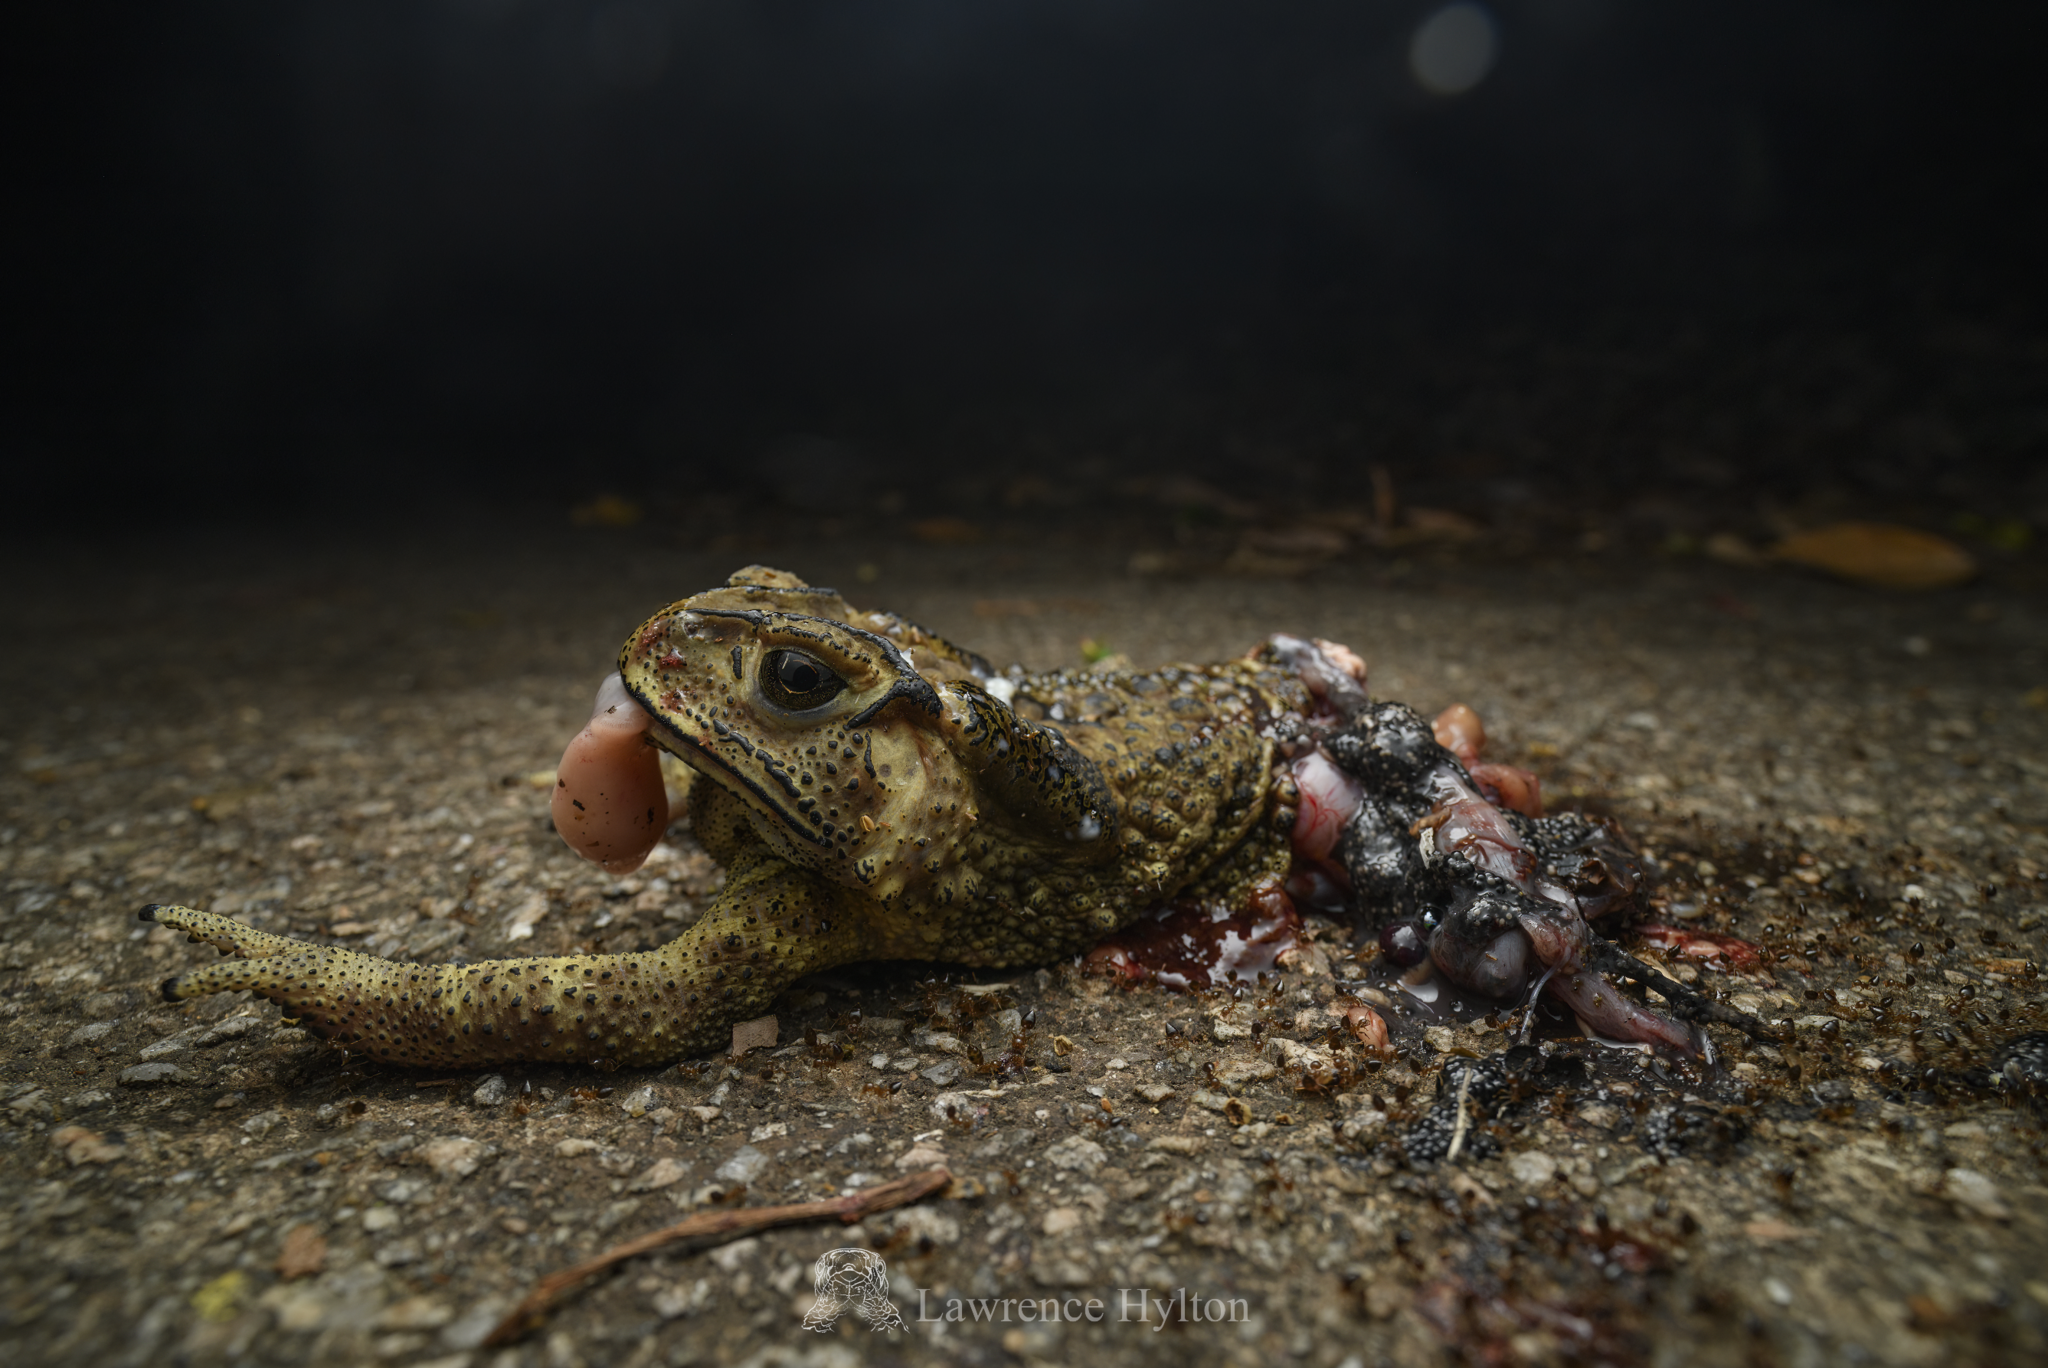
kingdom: Animalia
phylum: Chordata
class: Amphibia
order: Anura
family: Bufonidae
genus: Duttaphrynus
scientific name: Duttaphrynus melanostictus
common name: Common sunda toad
